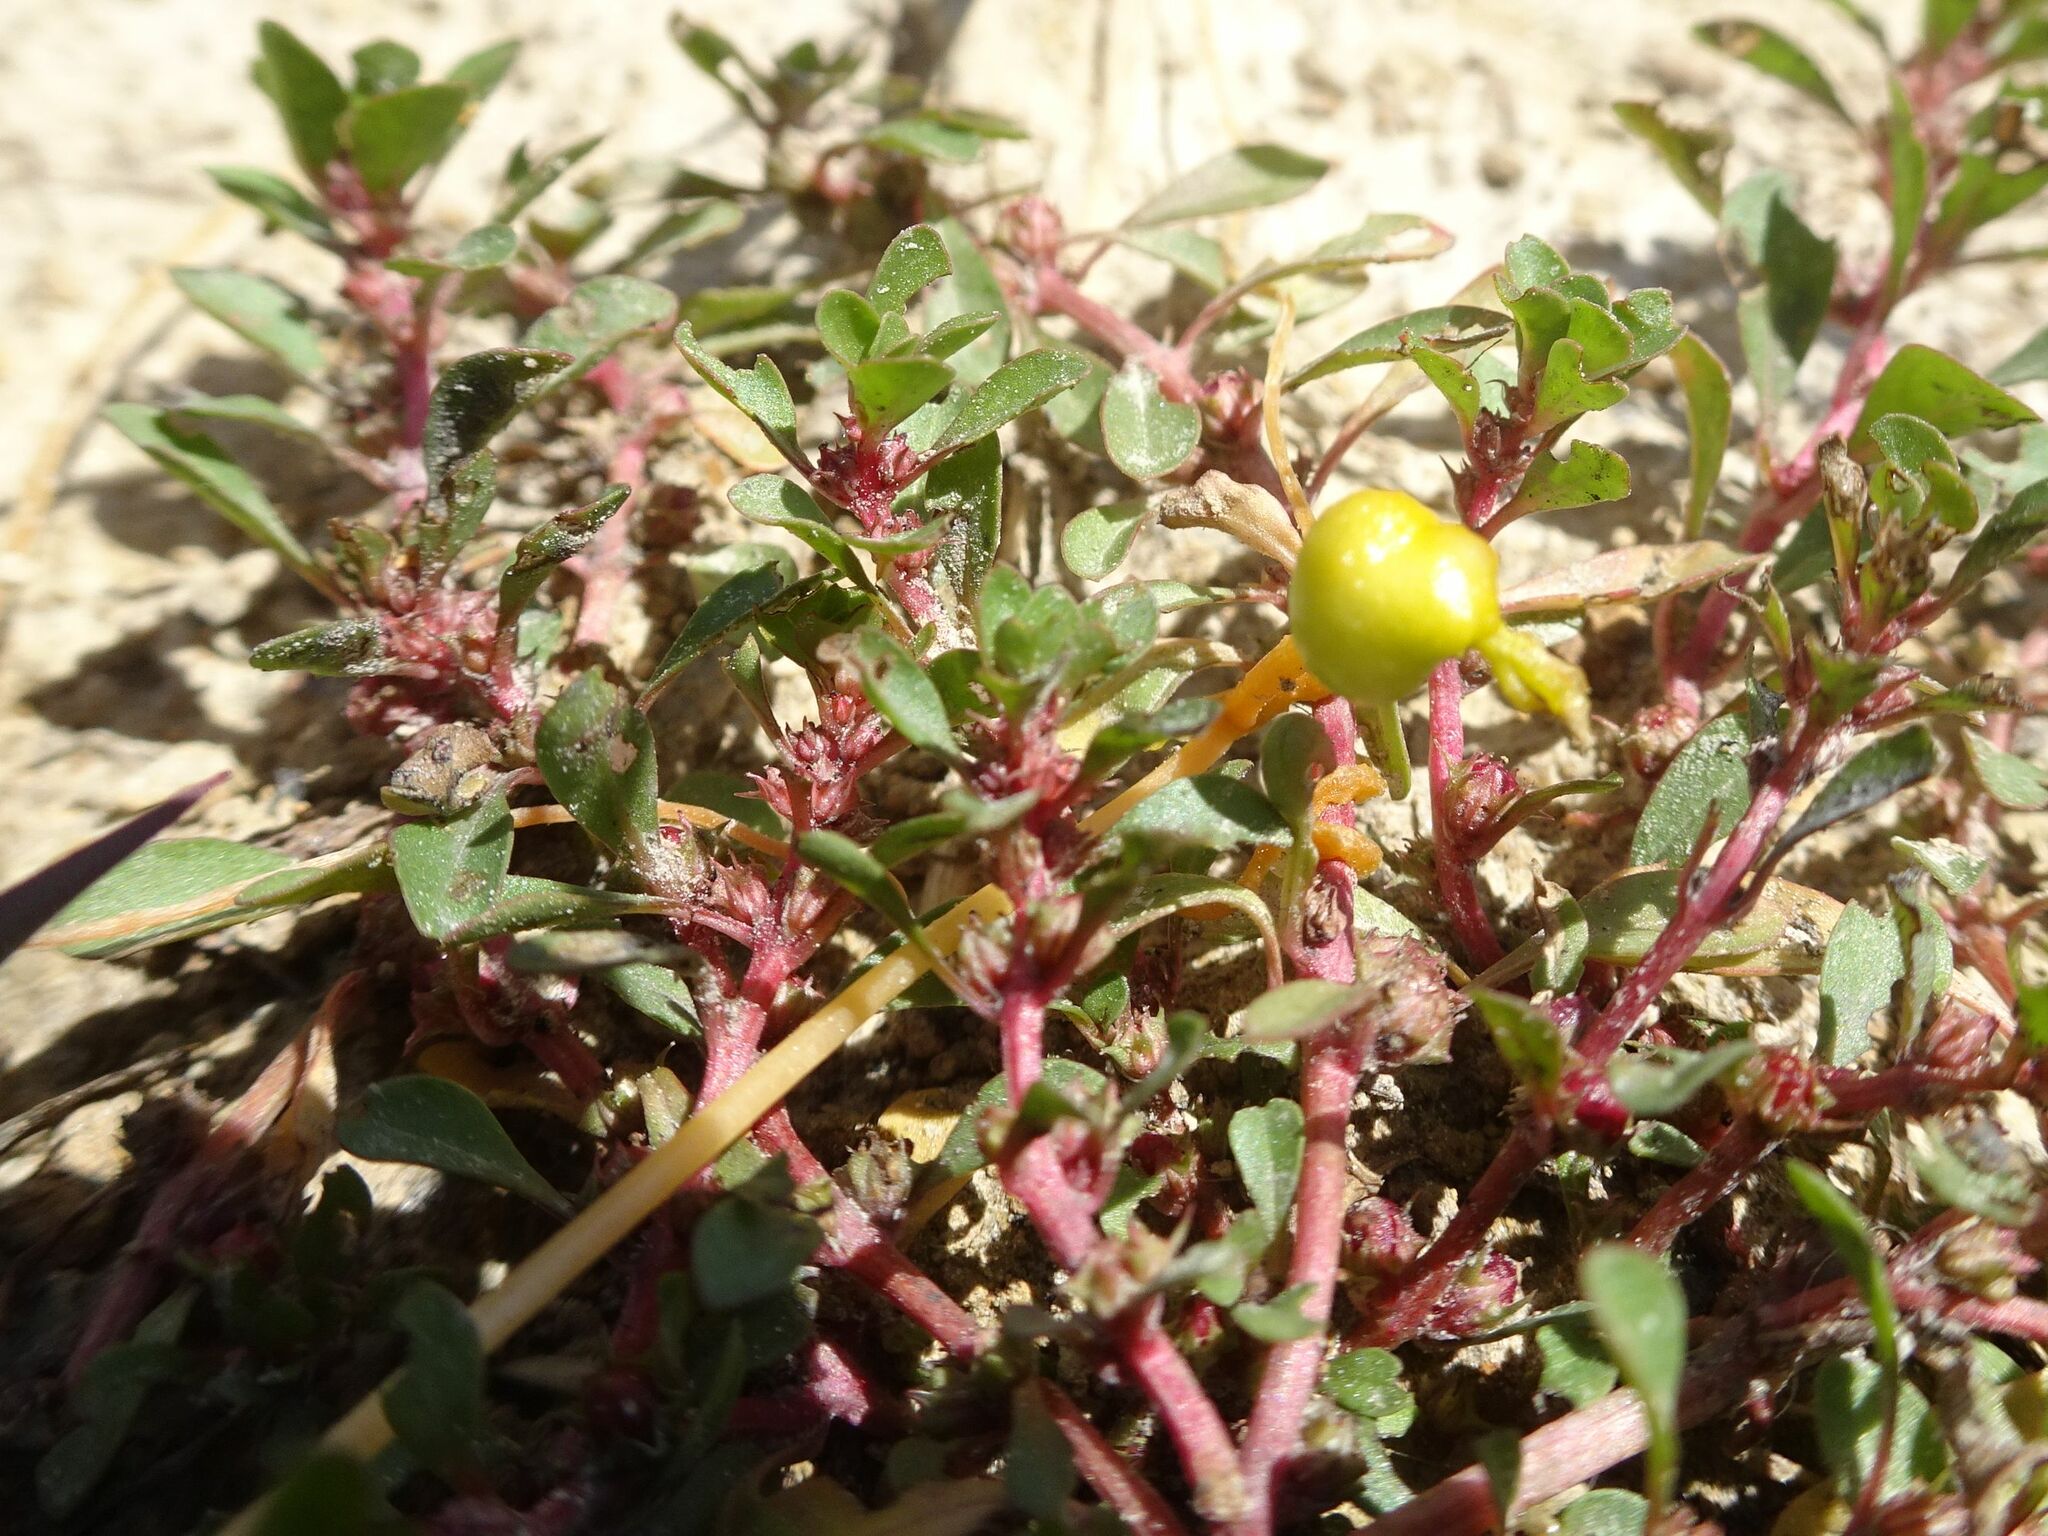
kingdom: Plantae
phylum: Tracheophyta
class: Magnoliopsida
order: Myrtales
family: Lythraceae
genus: Lythrum
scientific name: Lythrum portula
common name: Water purslane
